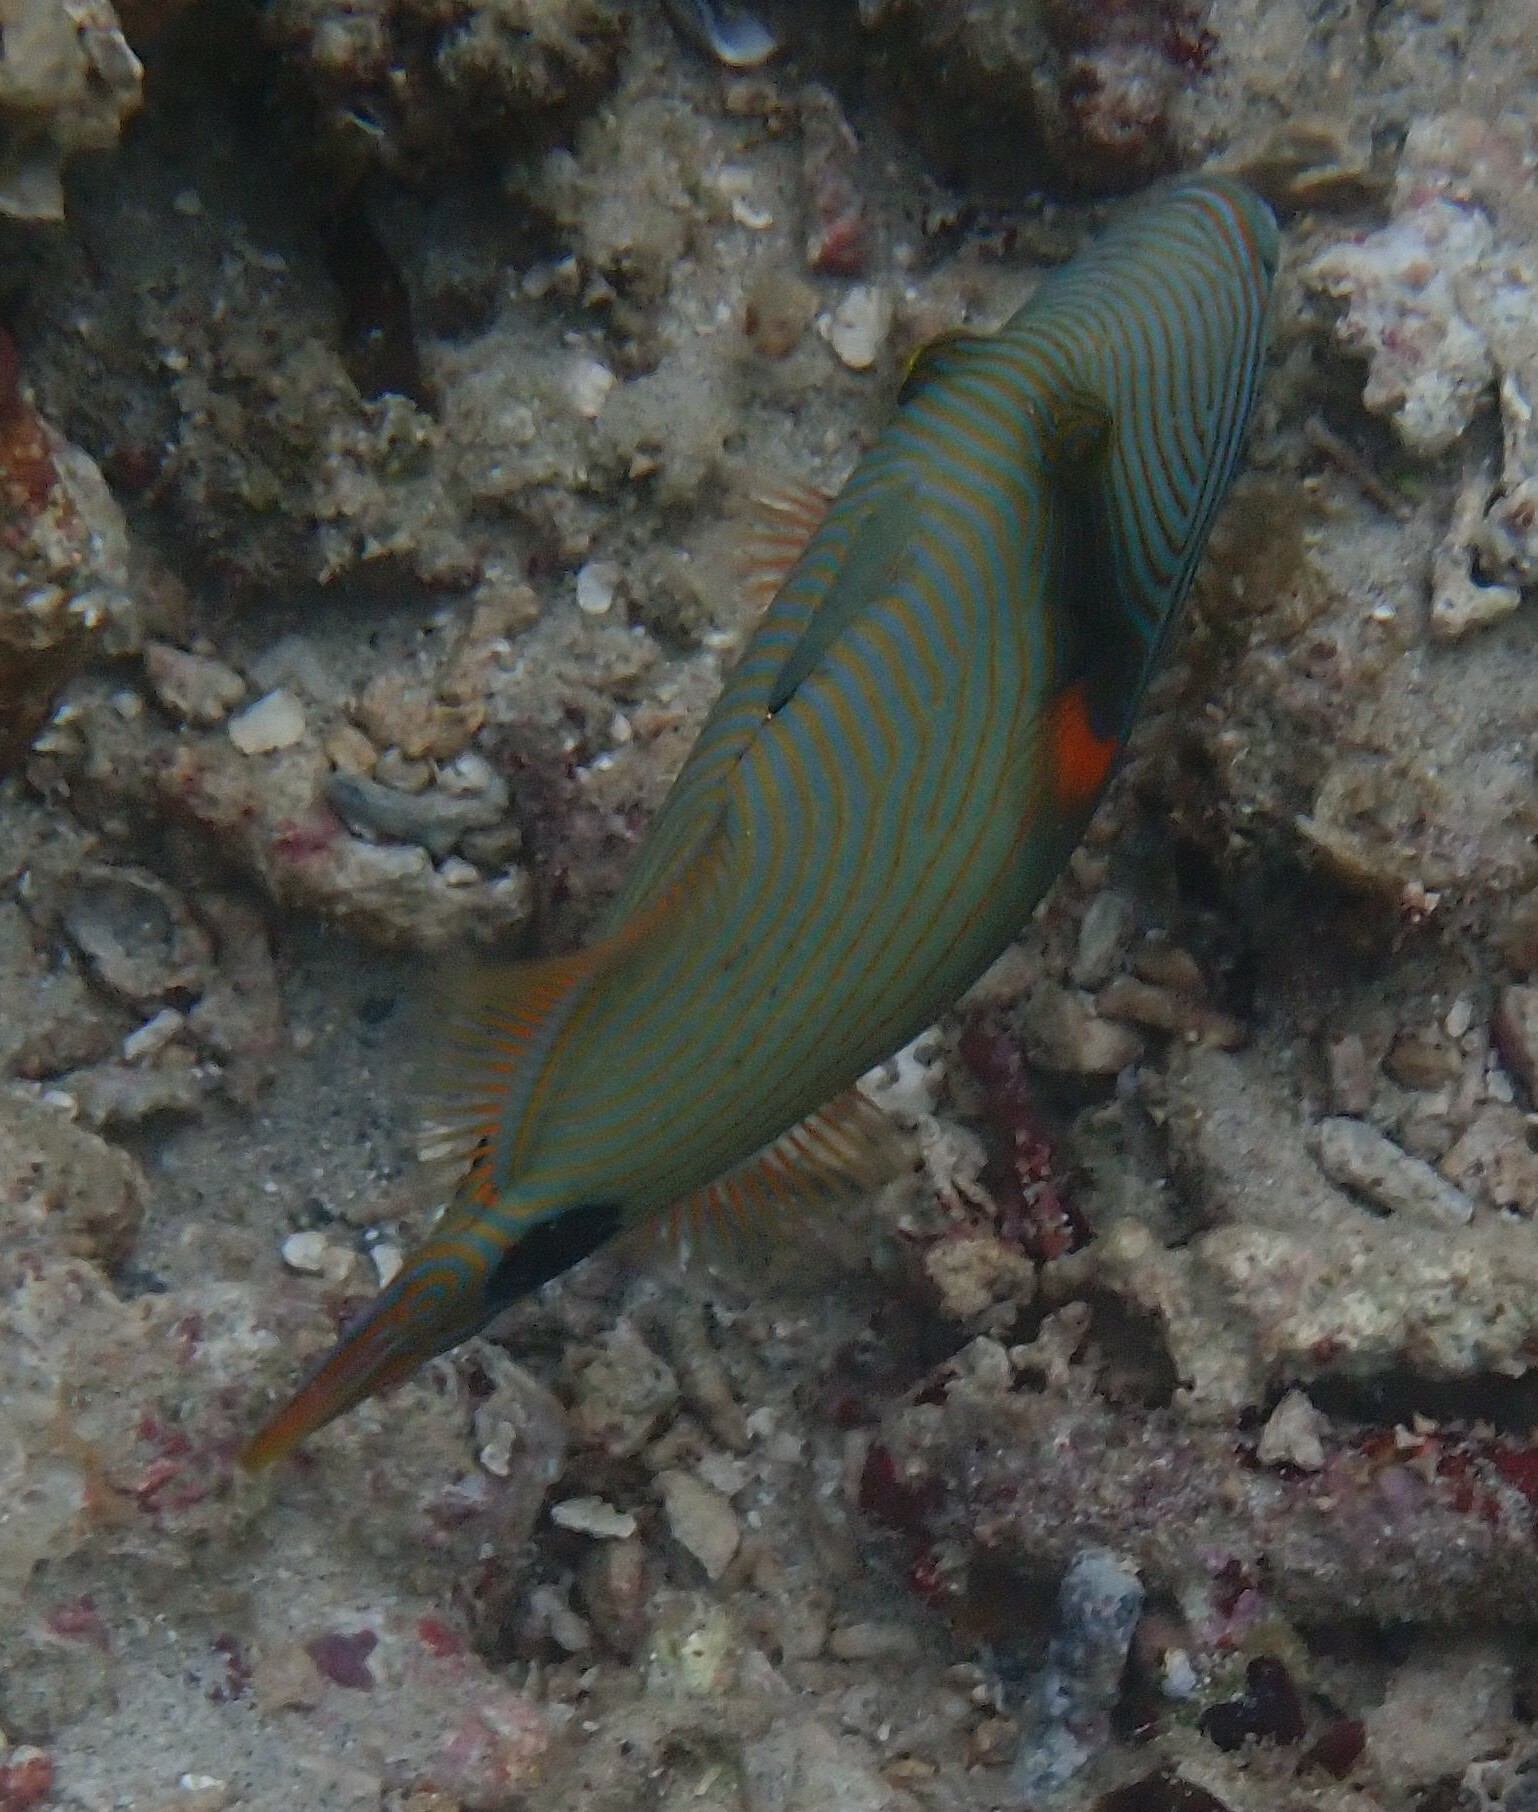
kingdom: Animalia
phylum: Chordata
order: Tetraodontiformes
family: Balistidae
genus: Balistapus
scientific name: Balistapus undulatus
